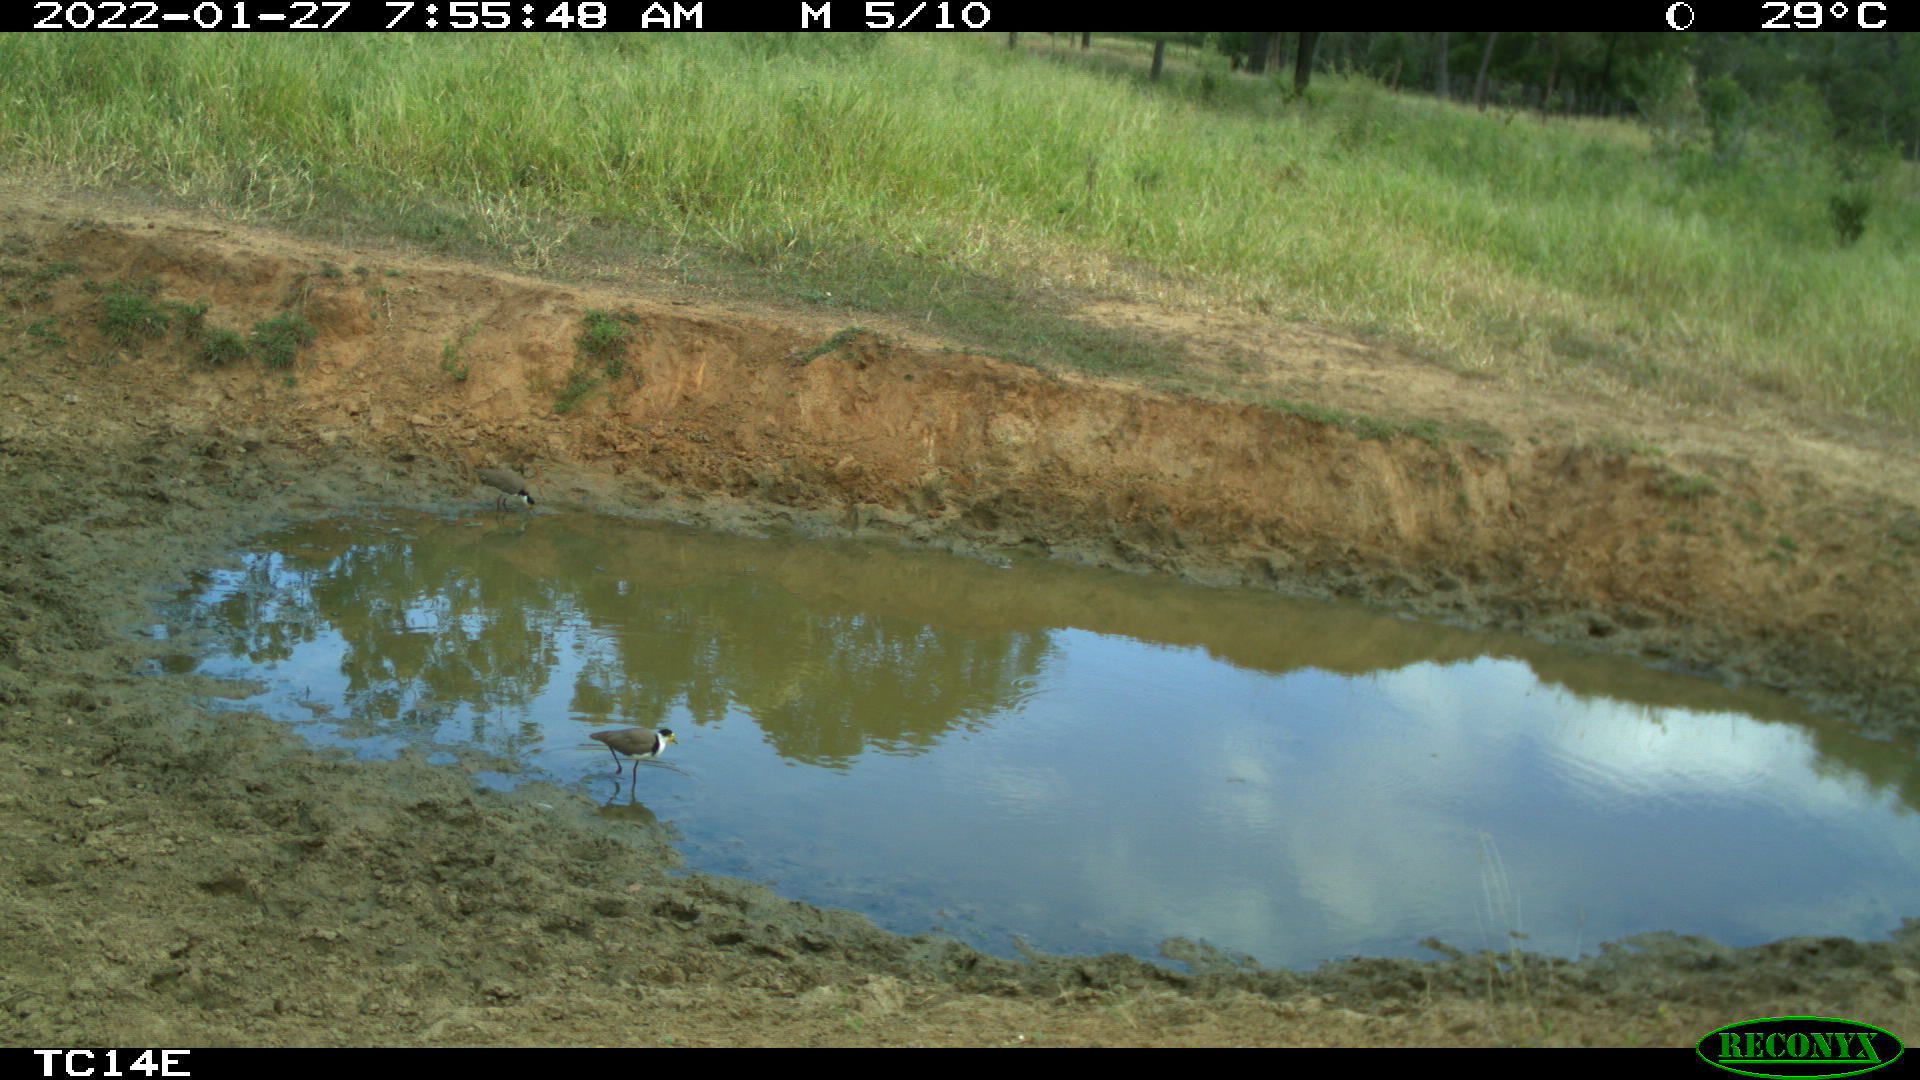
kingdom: Animalia
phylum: Chordata
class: Aves
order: Charadriiformes
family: Charadriidae
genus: Vanellus
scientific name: Vanellus miles
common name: Masked lapwing
